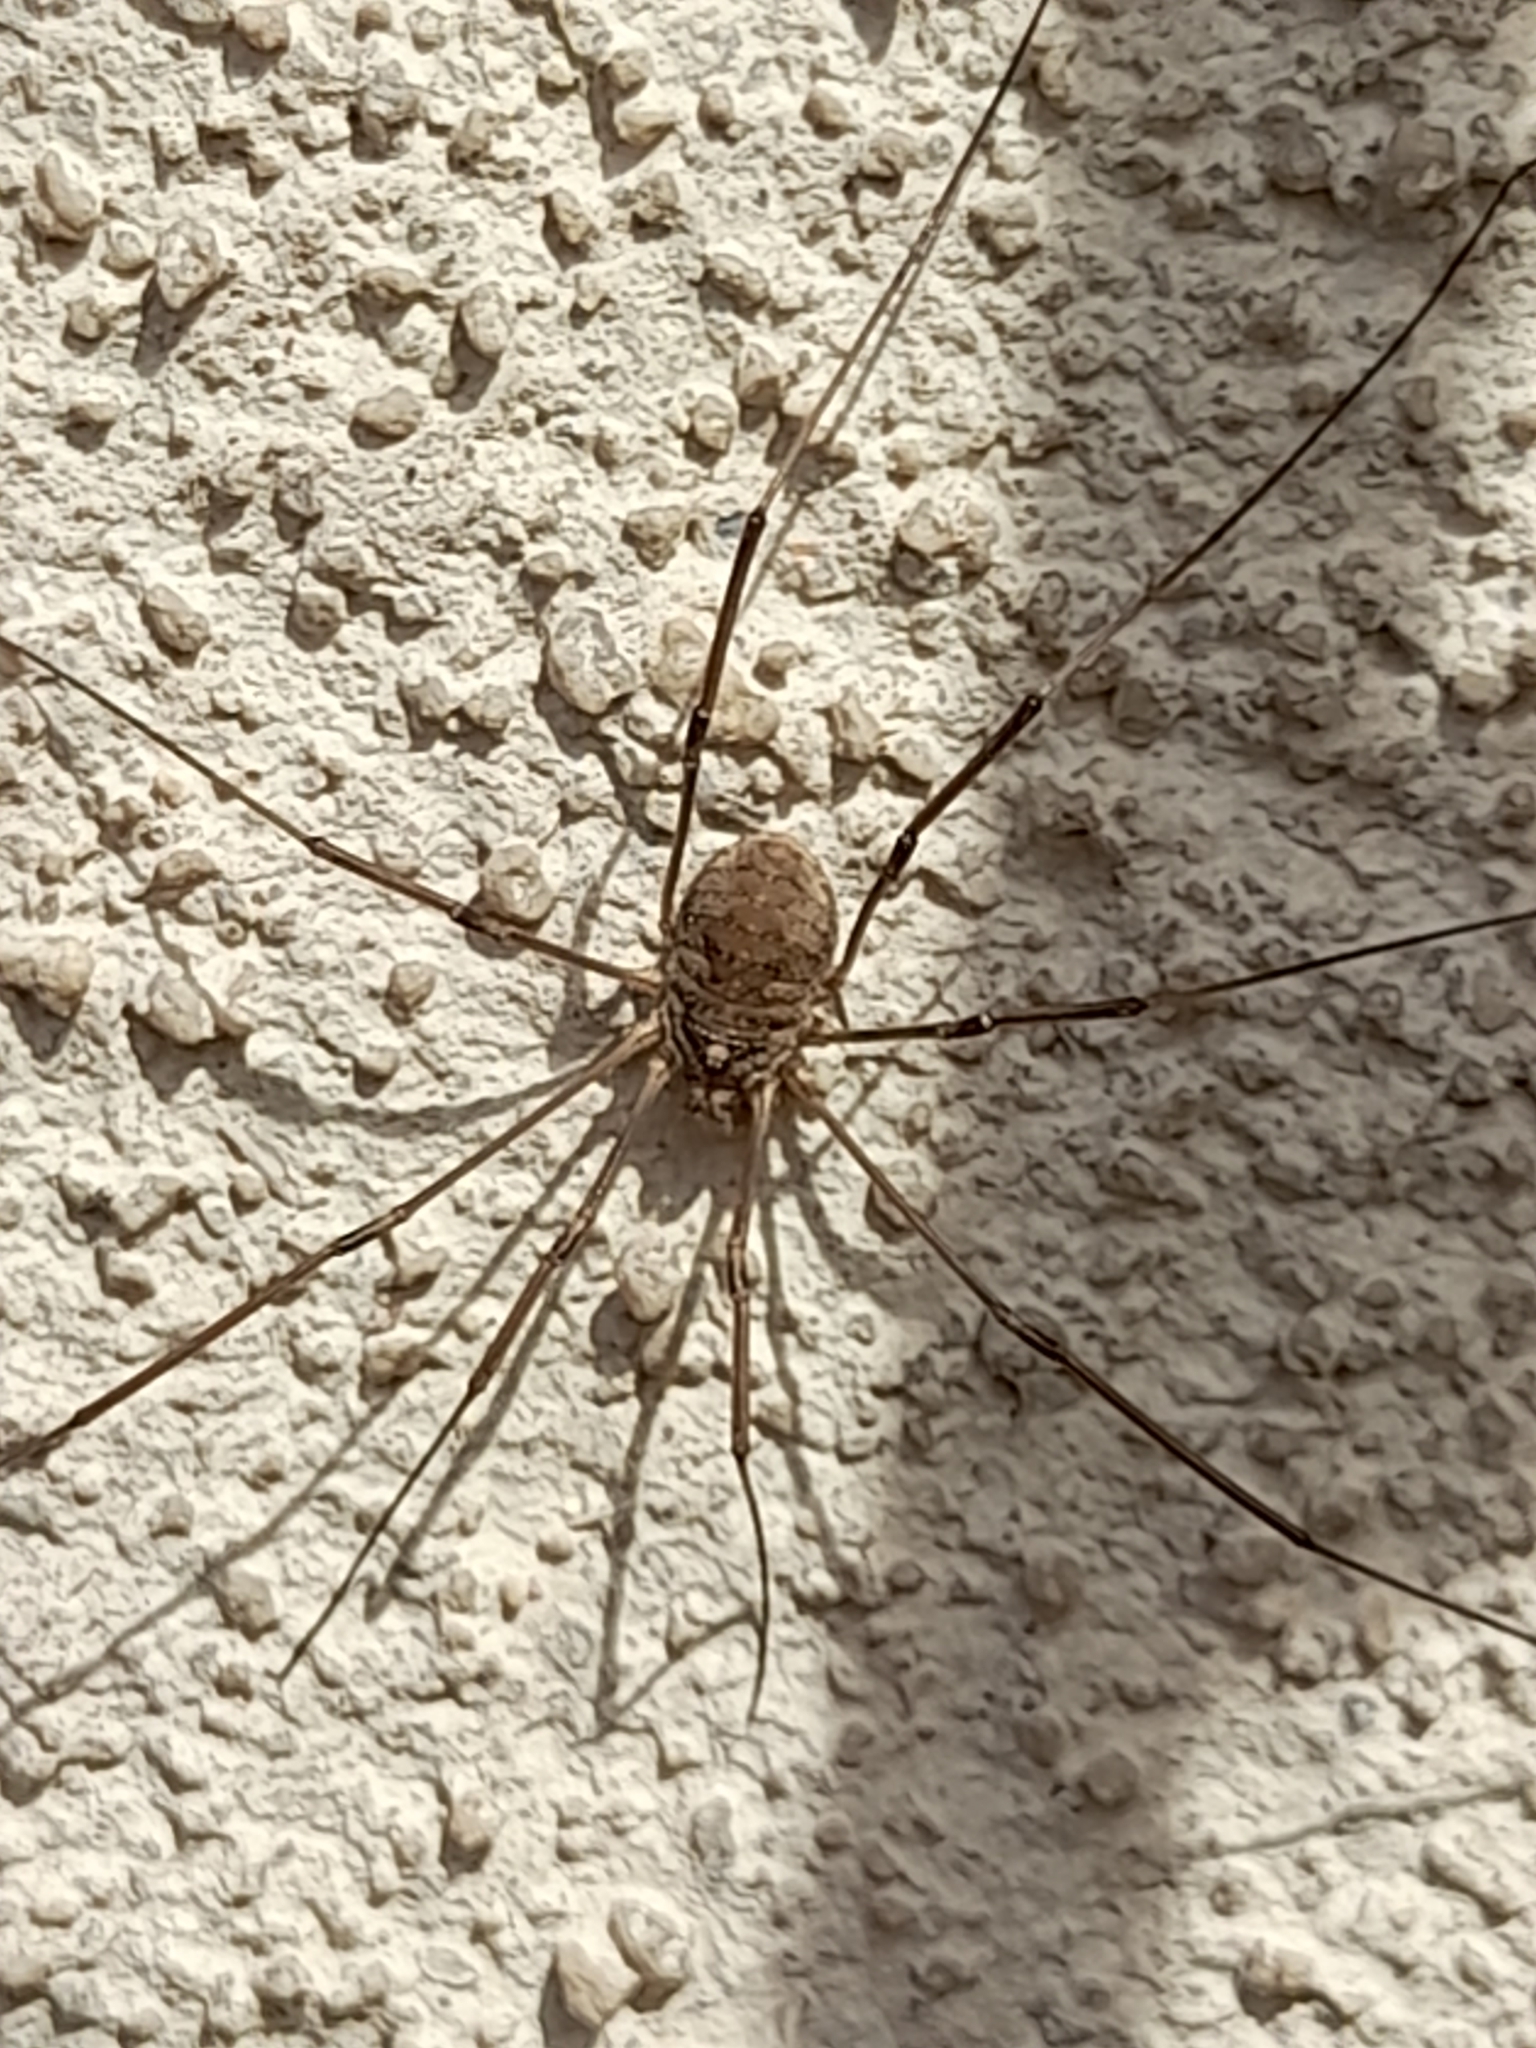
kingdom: Animalia
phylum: Arthropoda
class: Arachnida
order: Opiliones
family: Phalangiidae
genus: Phalangium
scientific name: Phalangium opilio
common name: Daddy longleg
